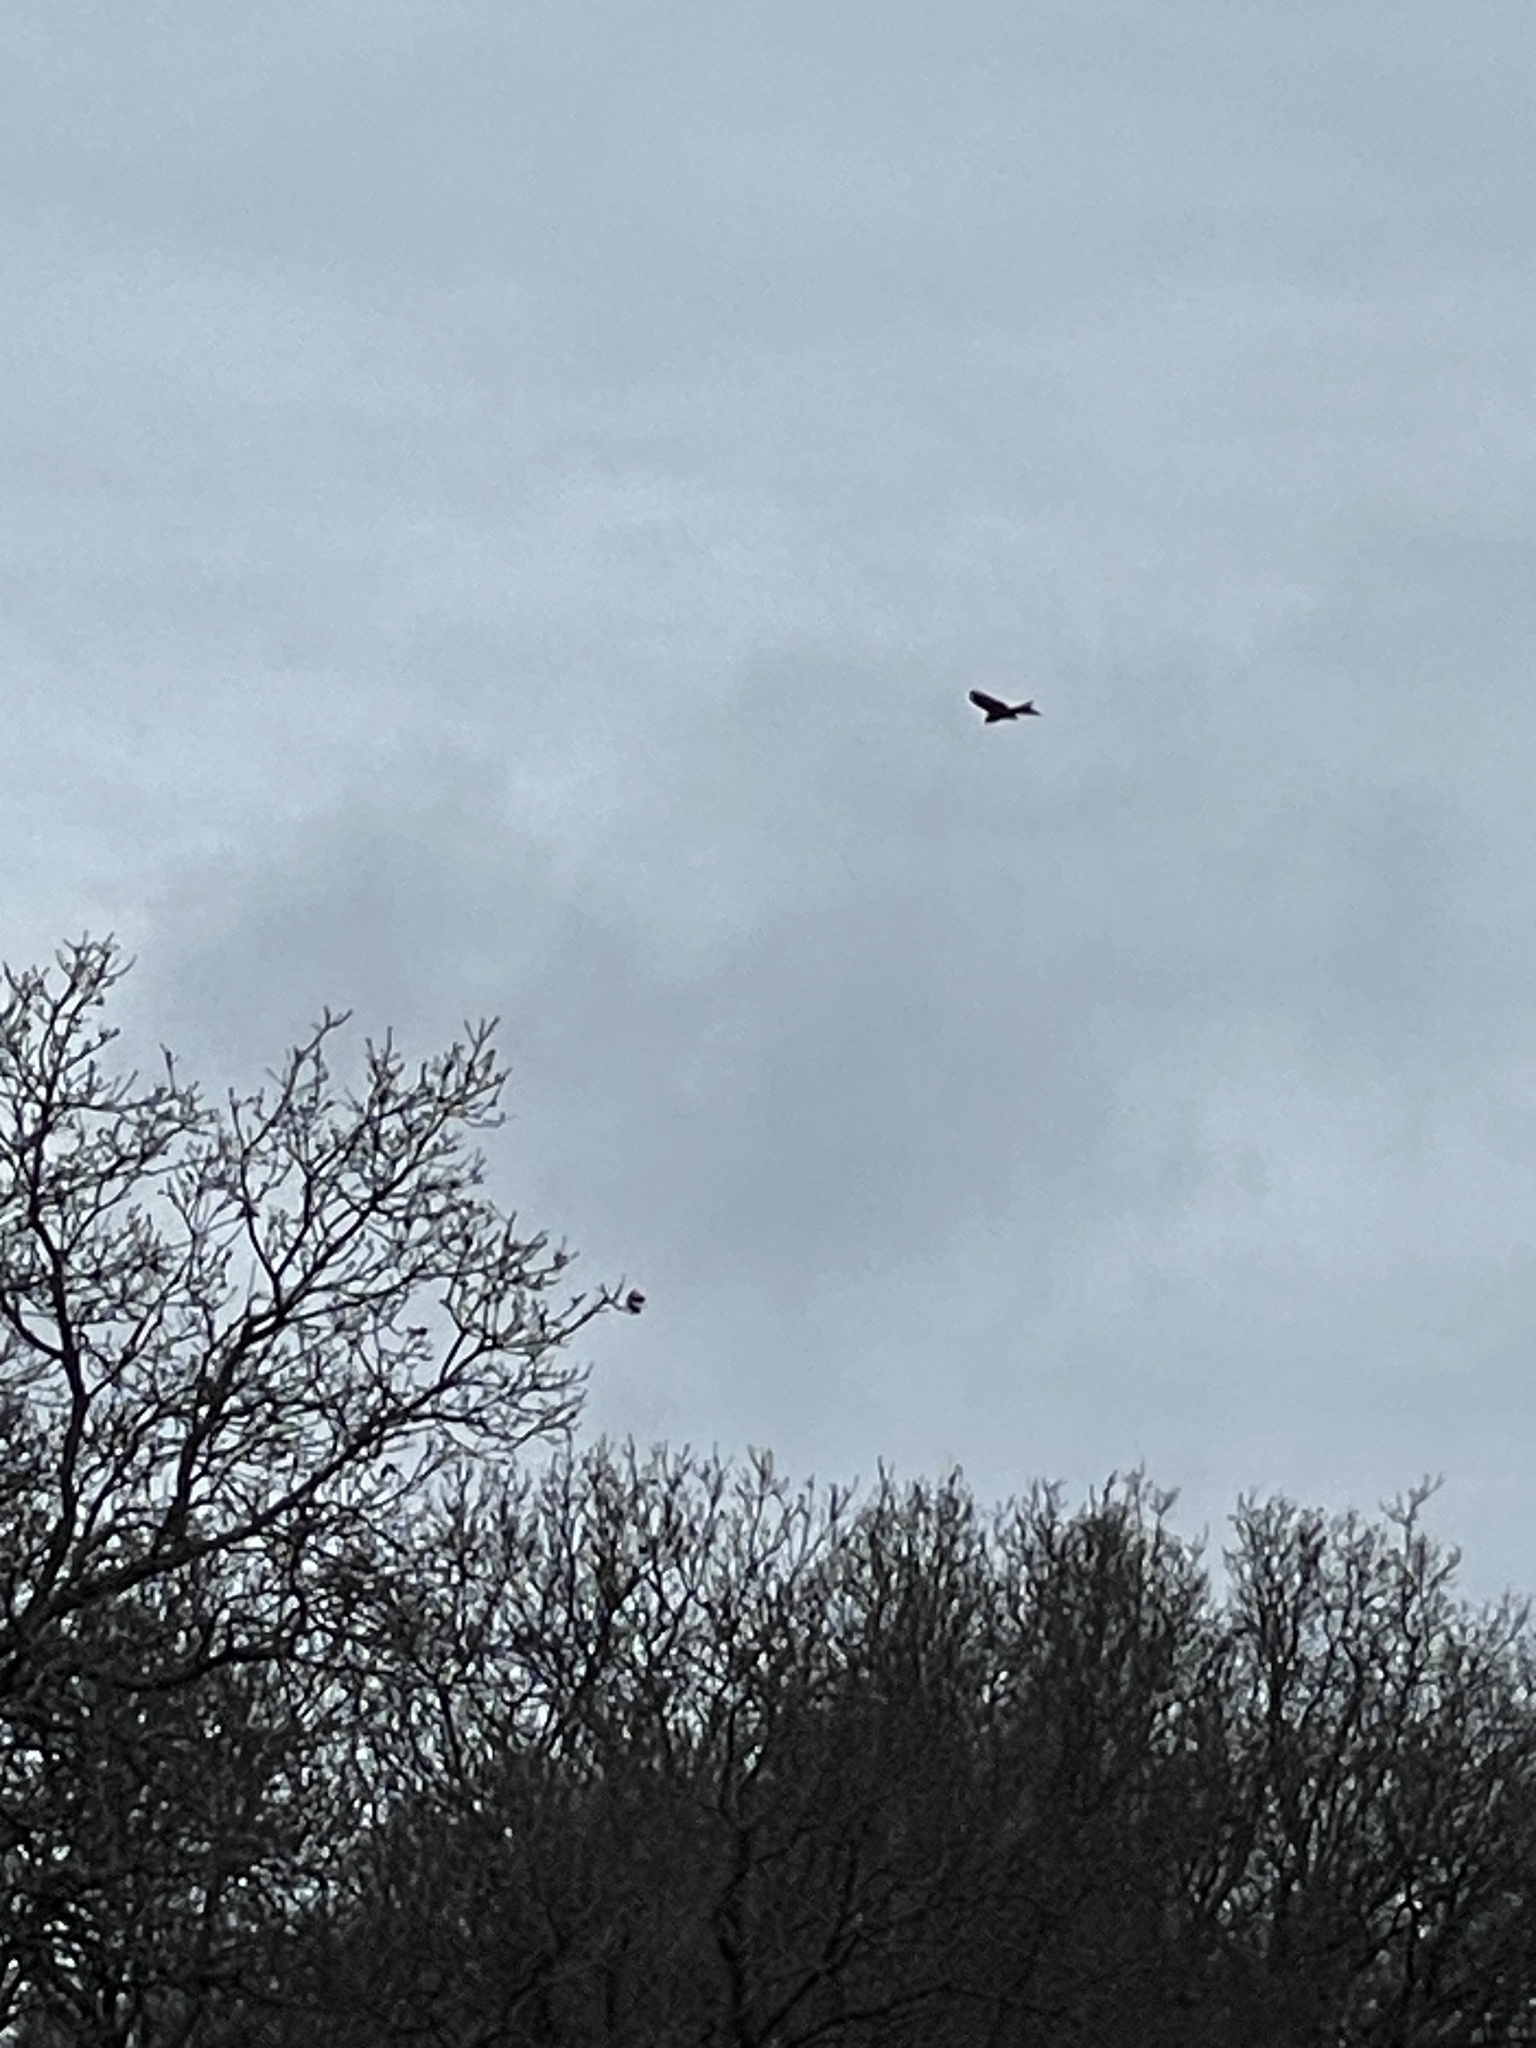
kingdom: Animalia
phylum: Chordata
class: Aves
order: Accipitriformes
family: Accipitridae
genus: Milvus
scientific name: Milvus milvus
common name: Red kite
